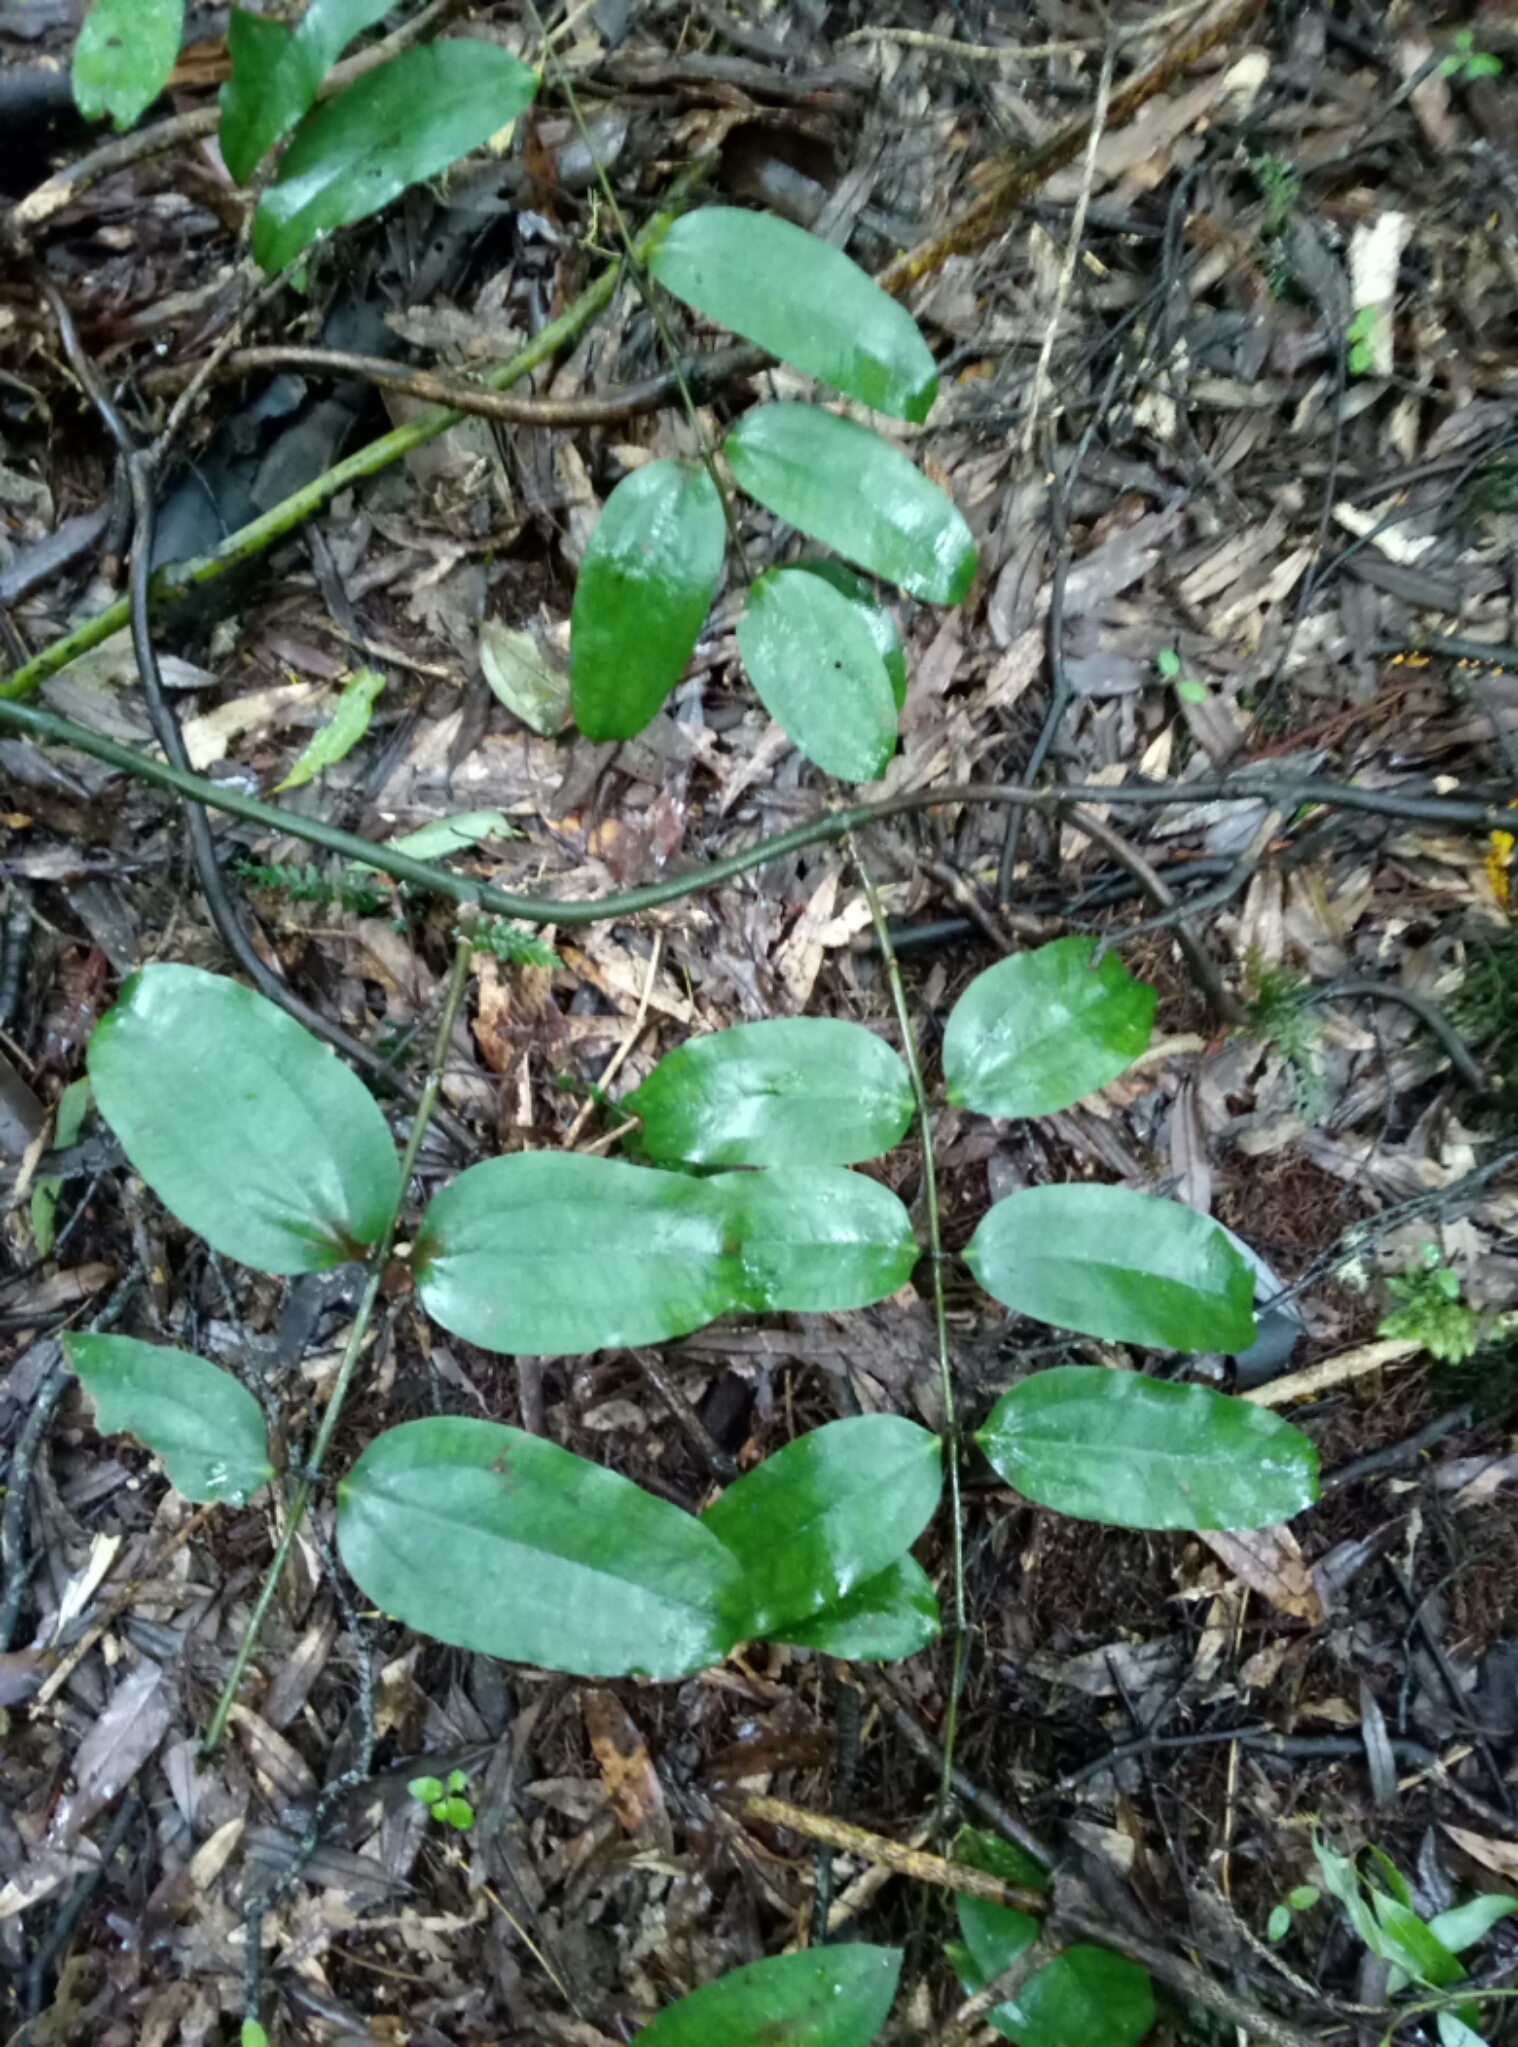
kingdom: Plantae
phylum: Tracheophyta
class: Liliopsida
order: Liliales
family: Ripogonaceae
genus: Ripogonum
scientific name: Ripogonum scandens
